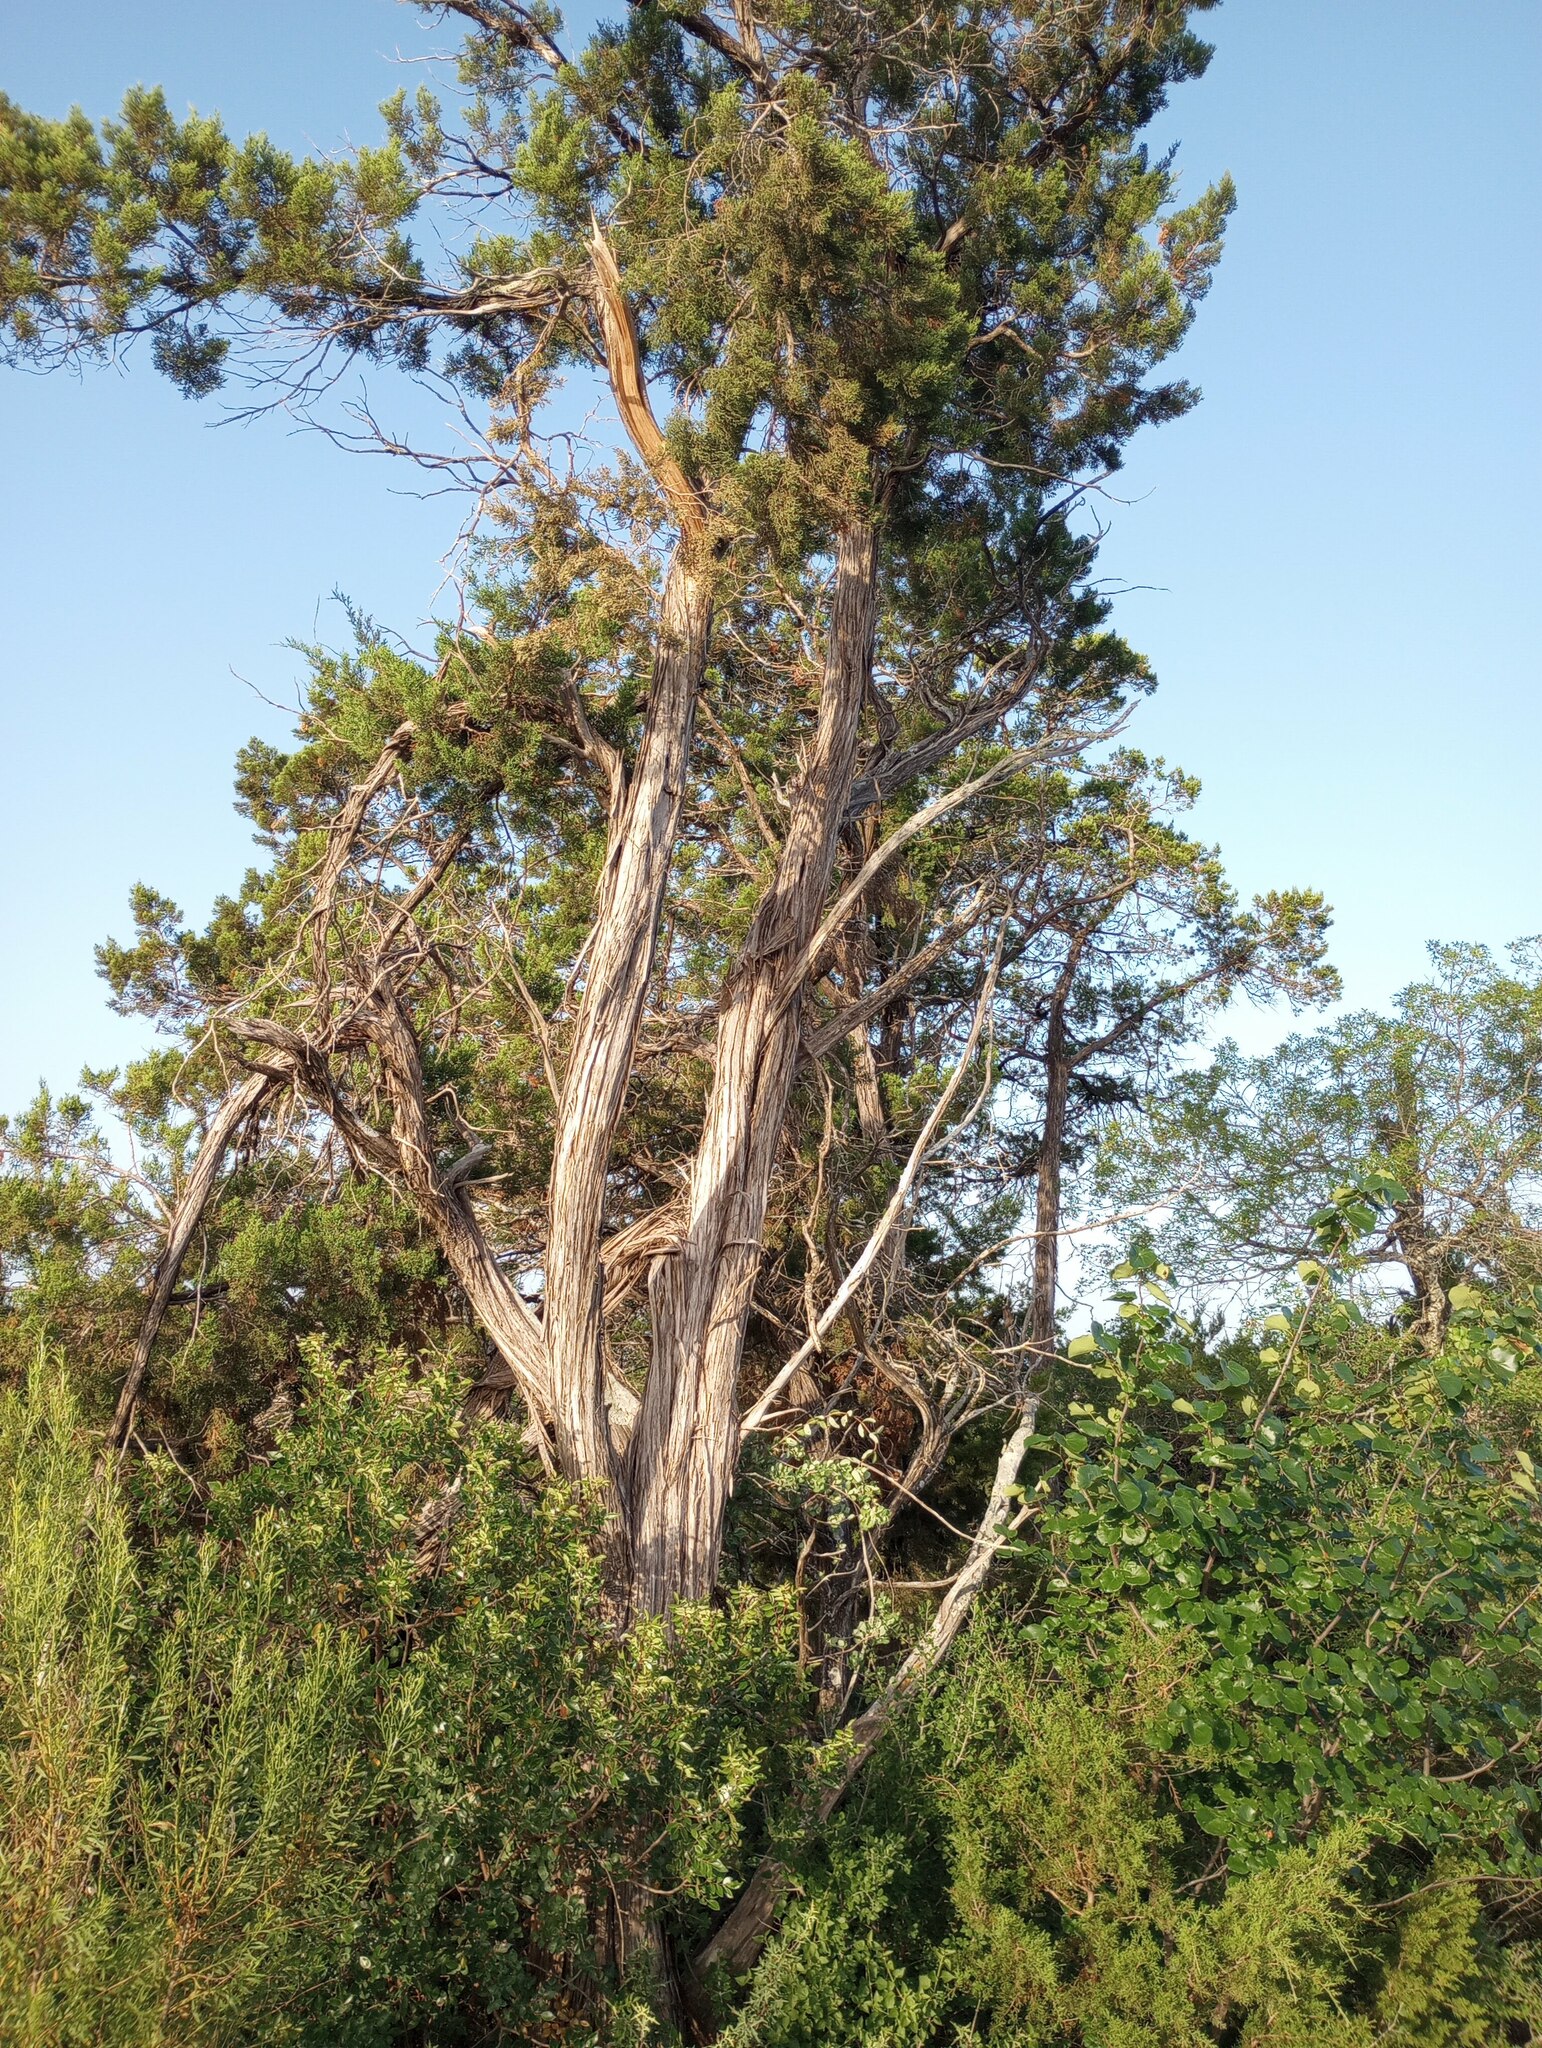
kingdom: Plantae
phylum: Tracheophyta
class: Pinopsida
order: Pinales
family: Cupressaceae
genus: Juniperus
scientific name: Juniperus ashei
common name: Mexican juniper
